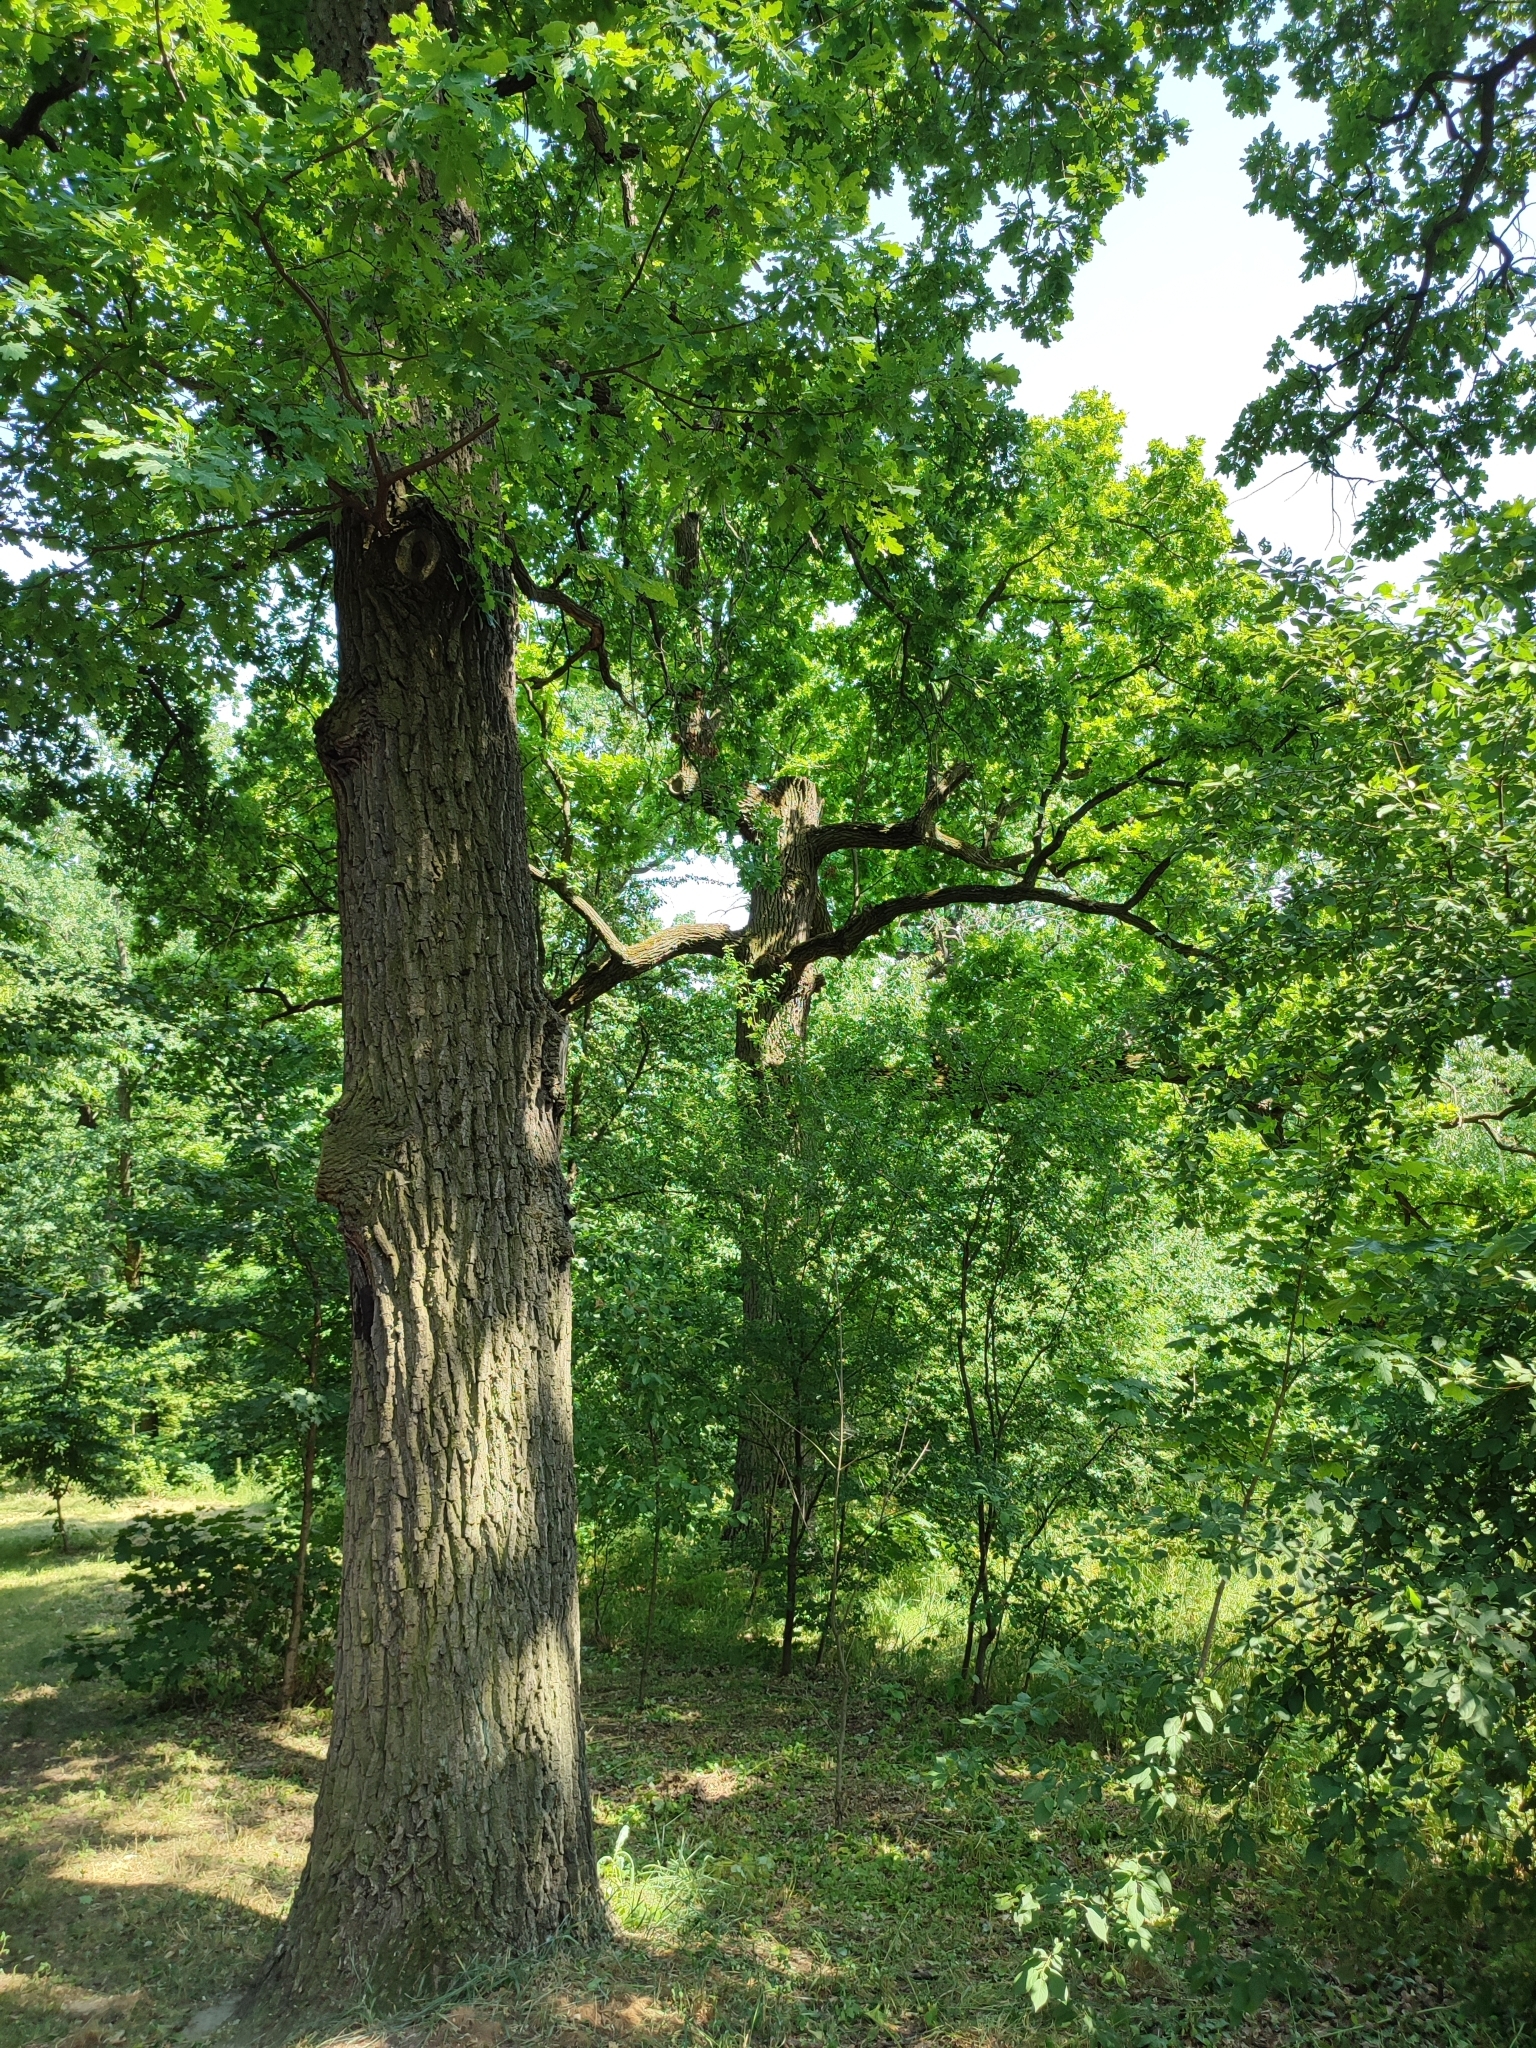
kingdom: Plantae
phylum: Tracheophyta
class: Magnoliopsida
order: Fagales
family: Fagaceae
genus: Quercus
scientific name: Quercus robur
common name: Pedunculate oak
